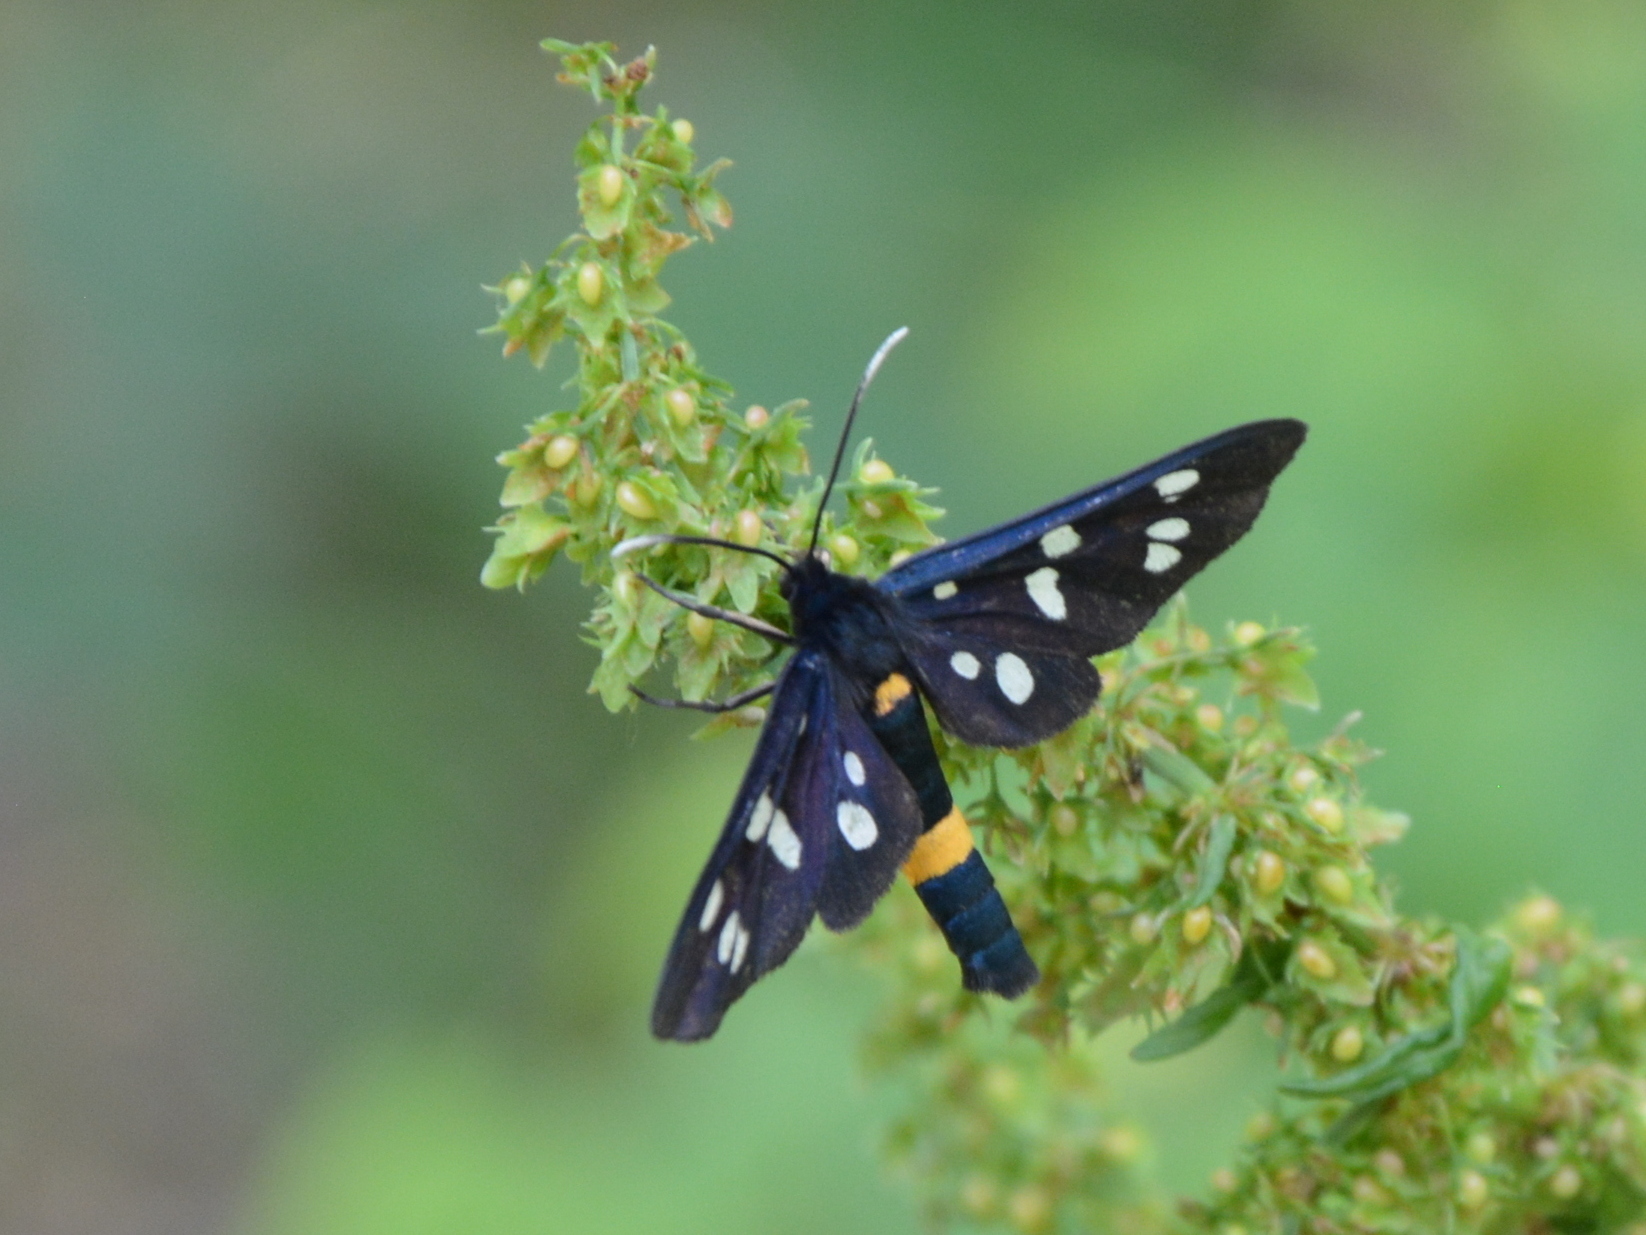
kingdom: Animalia
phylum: Arthropoda
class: Insecta
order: Lepidoptera
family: Erebidae
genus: Amata
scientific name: Amata phegea
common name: Nine-spotted
